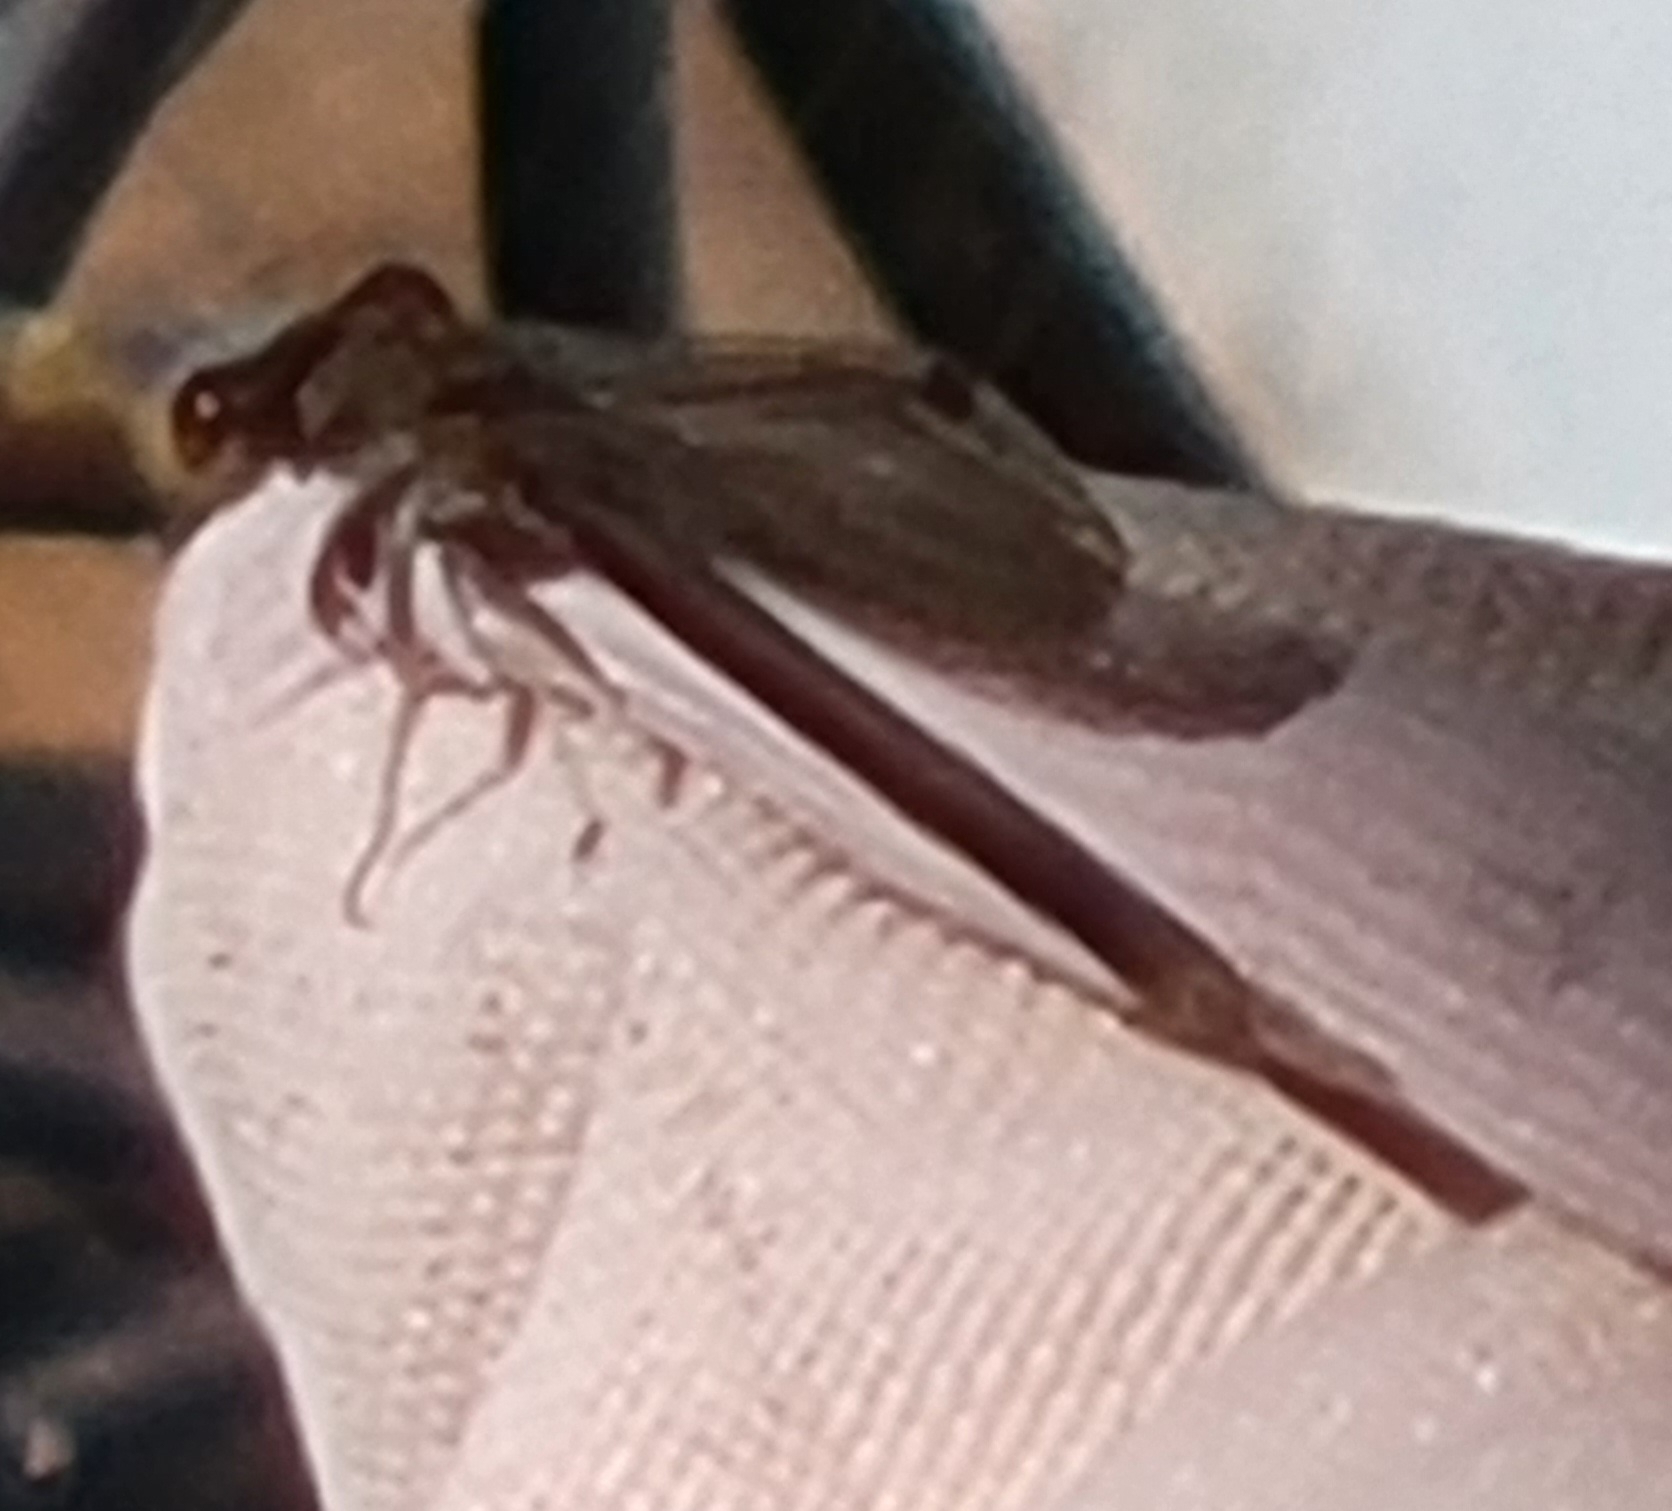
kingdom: Animalia
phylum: Arthropoda
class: Insecta
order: Odonata
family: Coenagrionidae
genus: Argia
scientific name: Argia fumipennis
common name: Variable dancer
